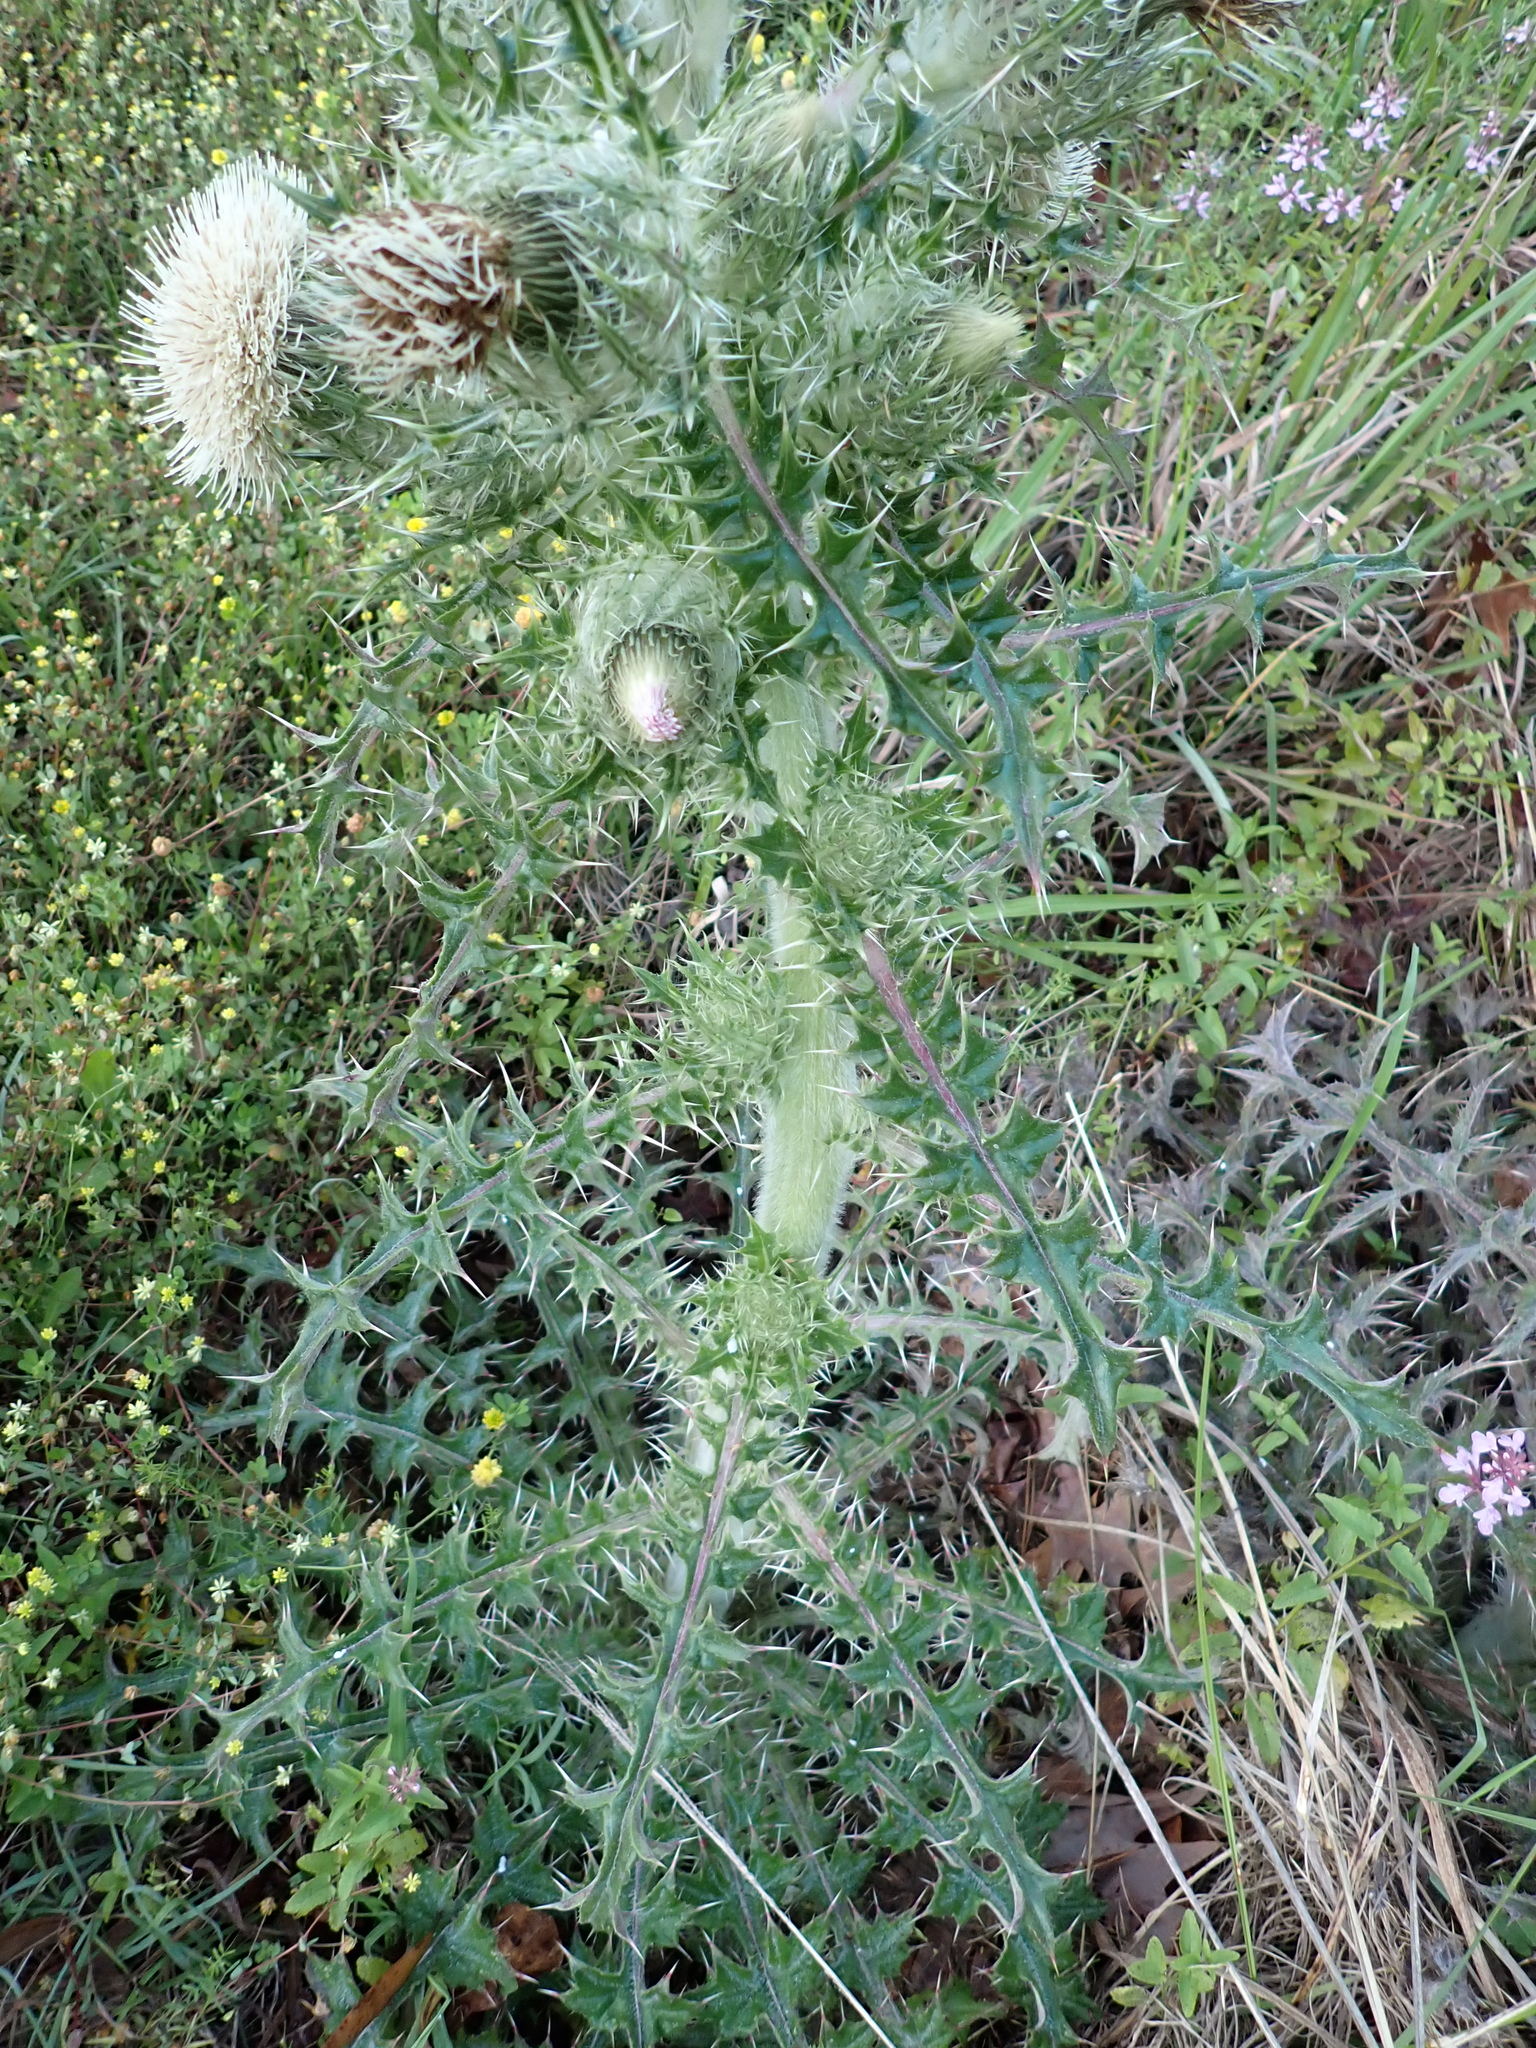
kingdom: Plantae
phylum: Tracheophyta
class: Magnoliopsida
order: Asterales
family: Asteraceae
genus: Cirsium
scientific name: Cirsium horridulum
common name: Bristly thistle
